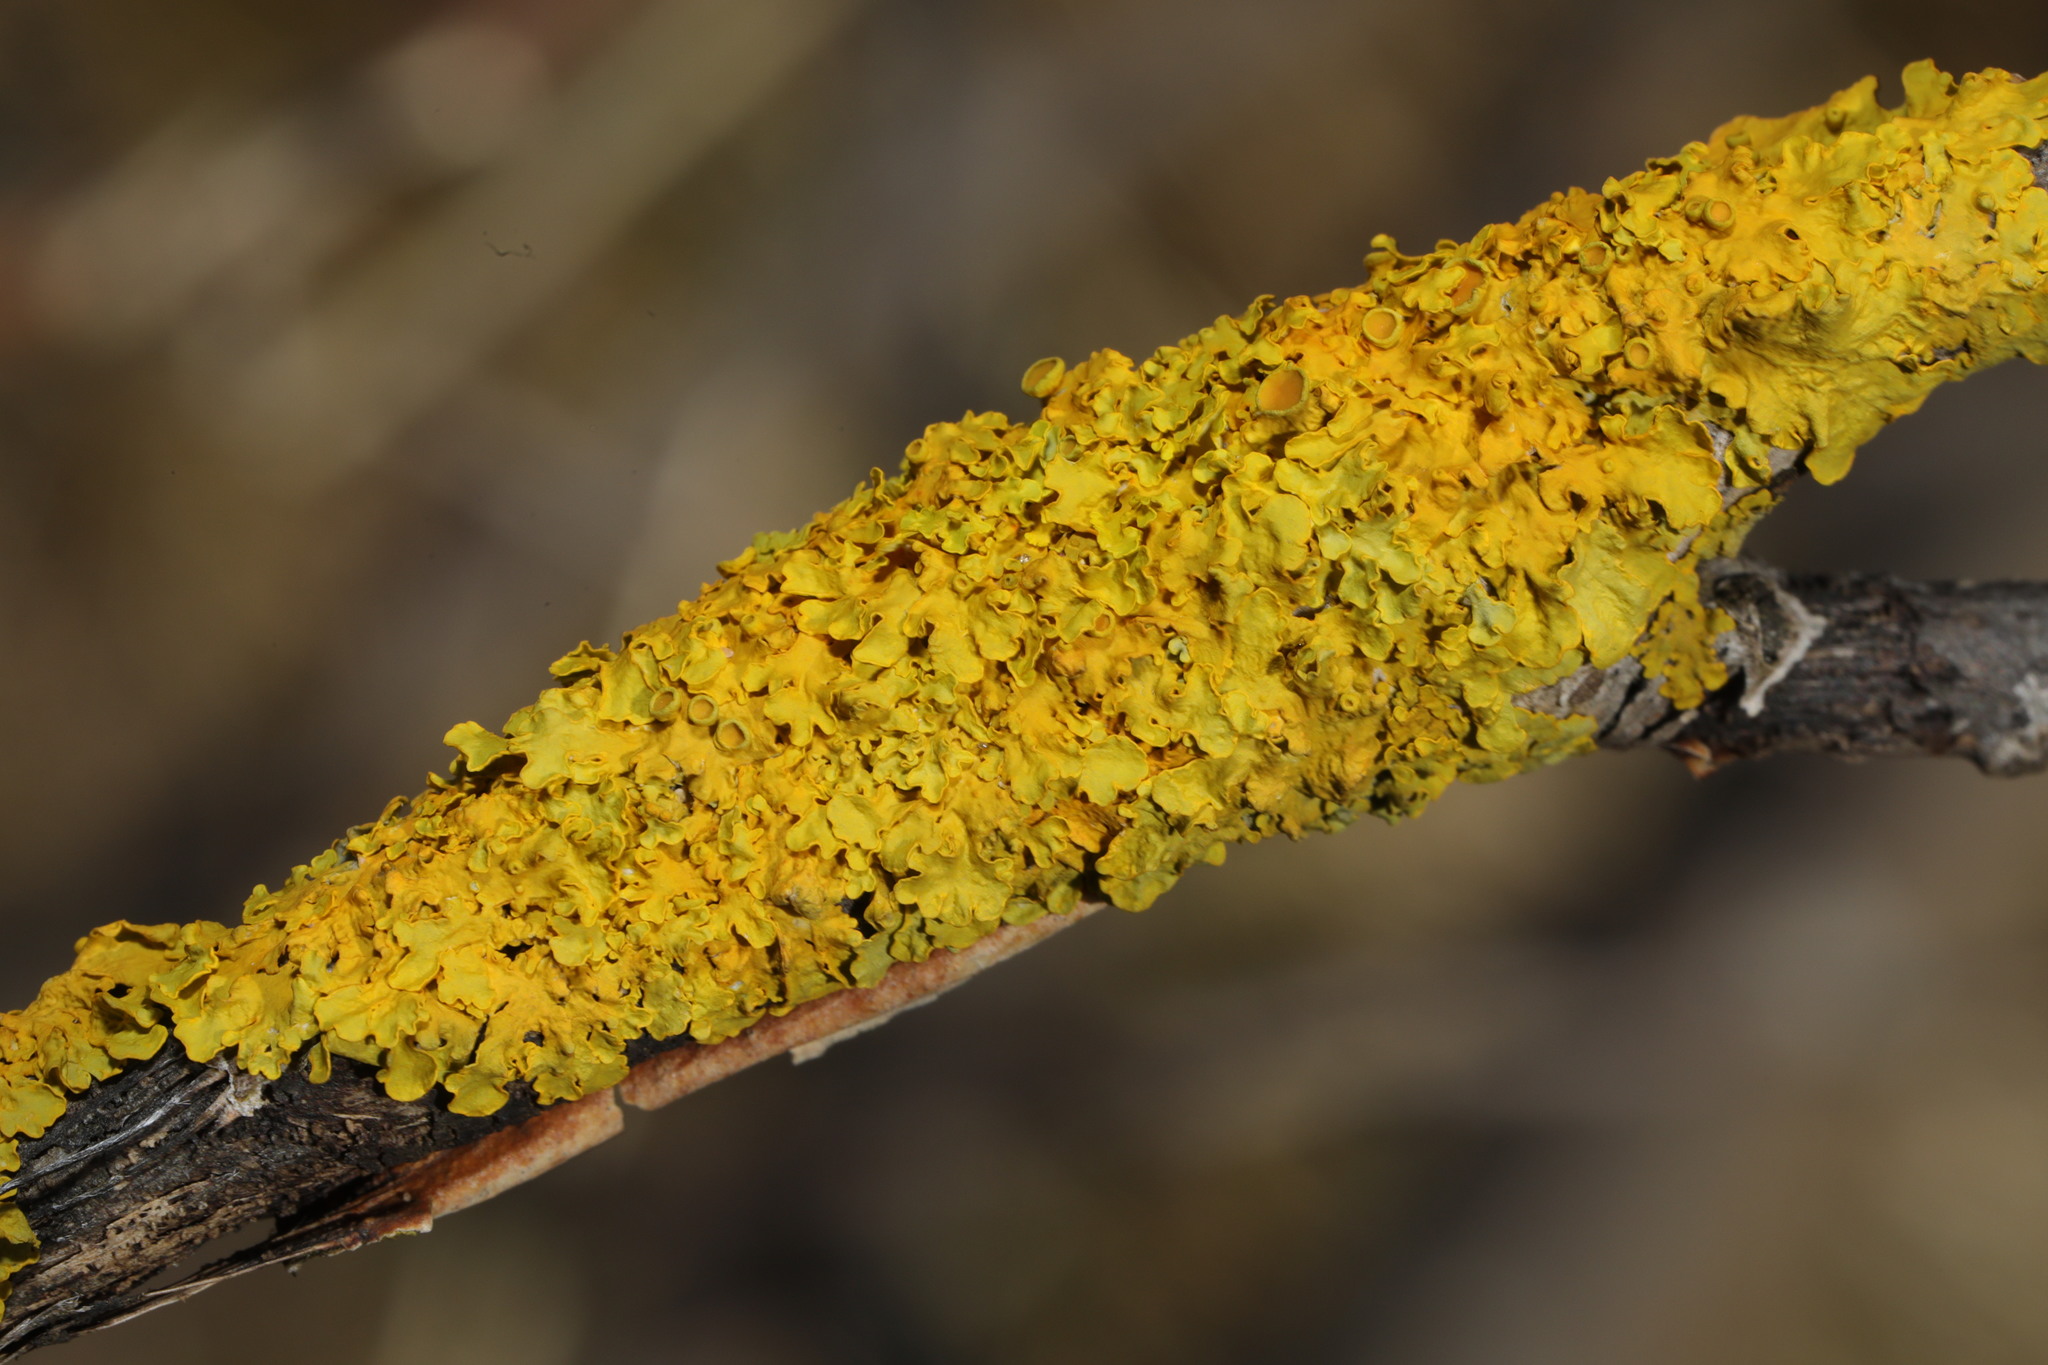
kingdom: Fungi
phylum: Ascomycota
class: Lecanoromycetes
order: Teloschistales
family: Teloschistaceae
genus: Xanthoria
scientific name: Xanthoria parietina
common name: Common orange lichen
